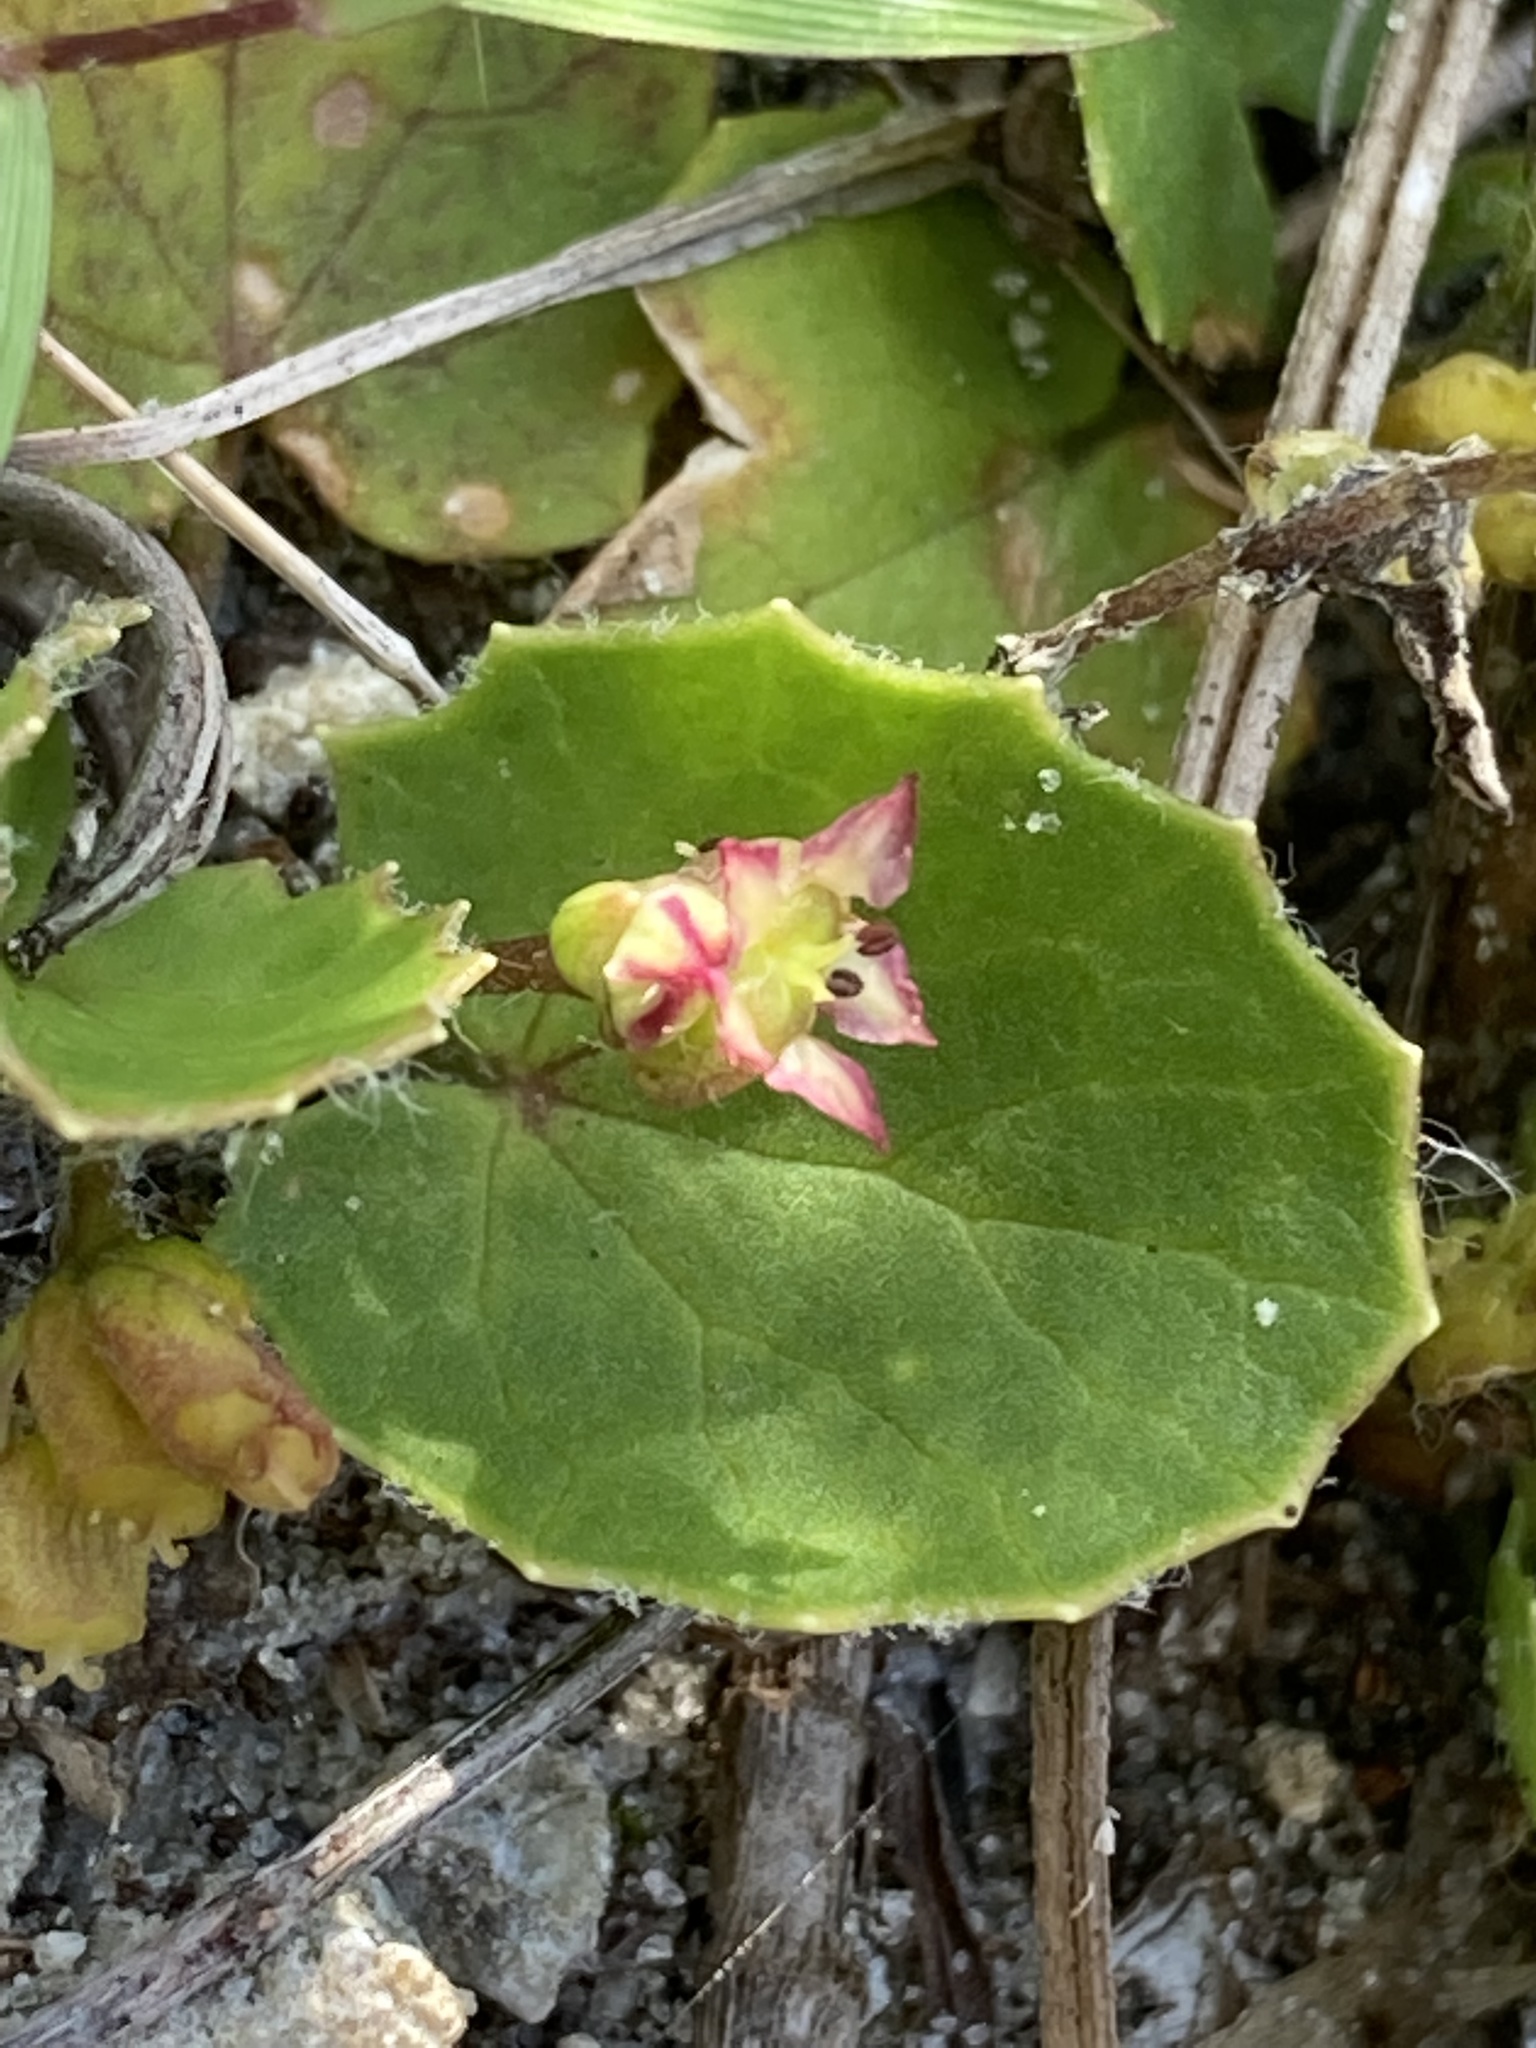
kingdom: Plantae
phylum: Tracheophyta
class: Magnoliopsida
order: Apiales
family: Apiaceae
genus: Centella
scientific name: Centella erecta
